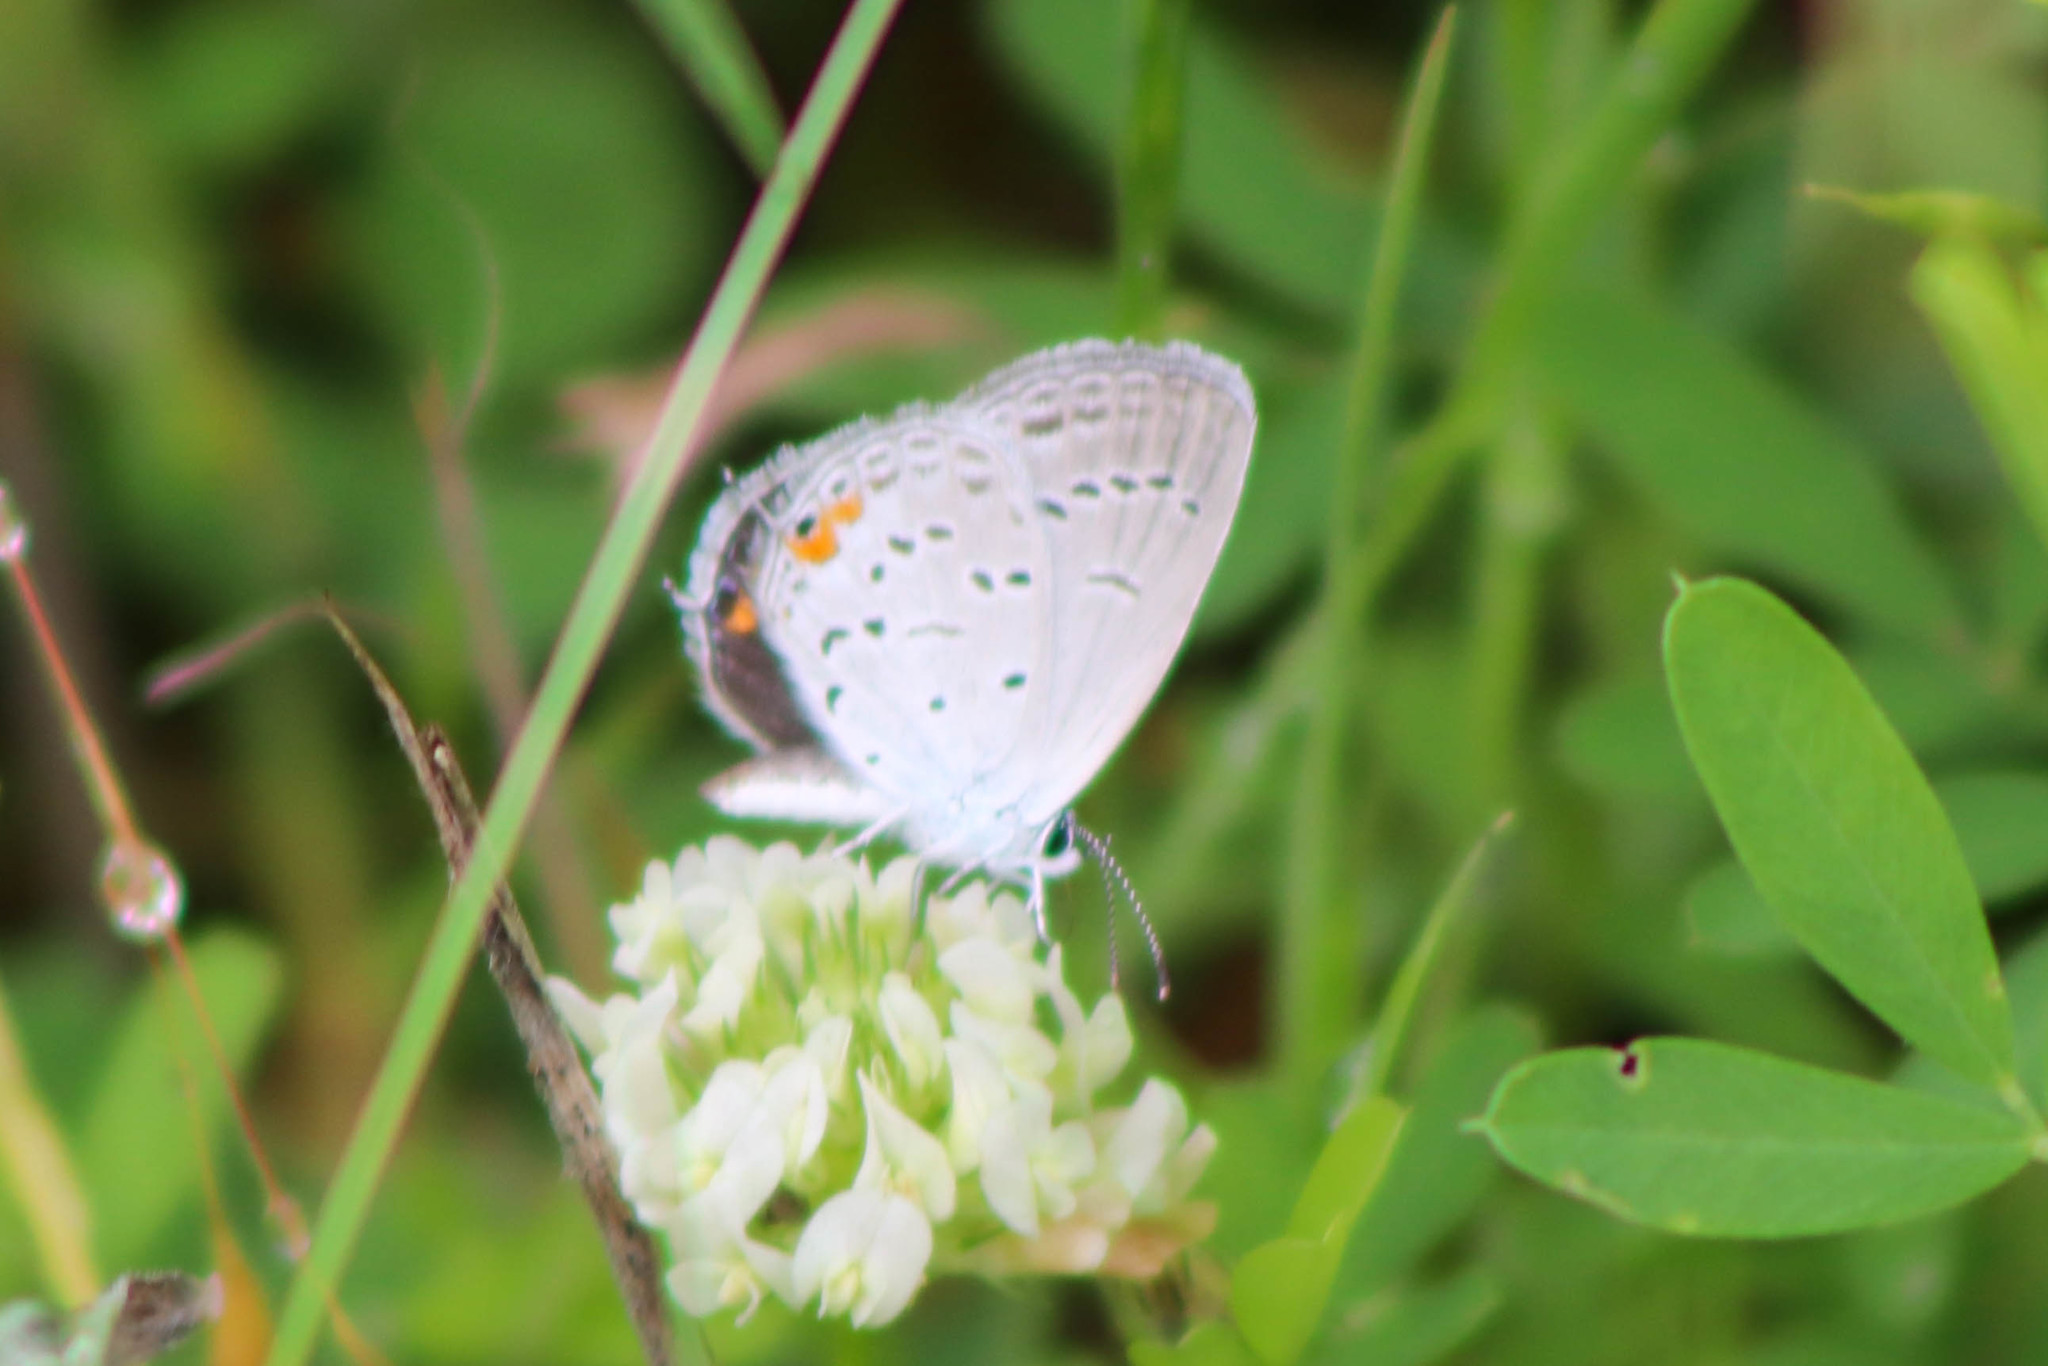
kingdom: Animalia
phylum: Arthropoda
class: Insecta
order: Lepidoptera
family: Lycaenidae
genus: Elkalyce
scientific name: Elkalyce comyntas
